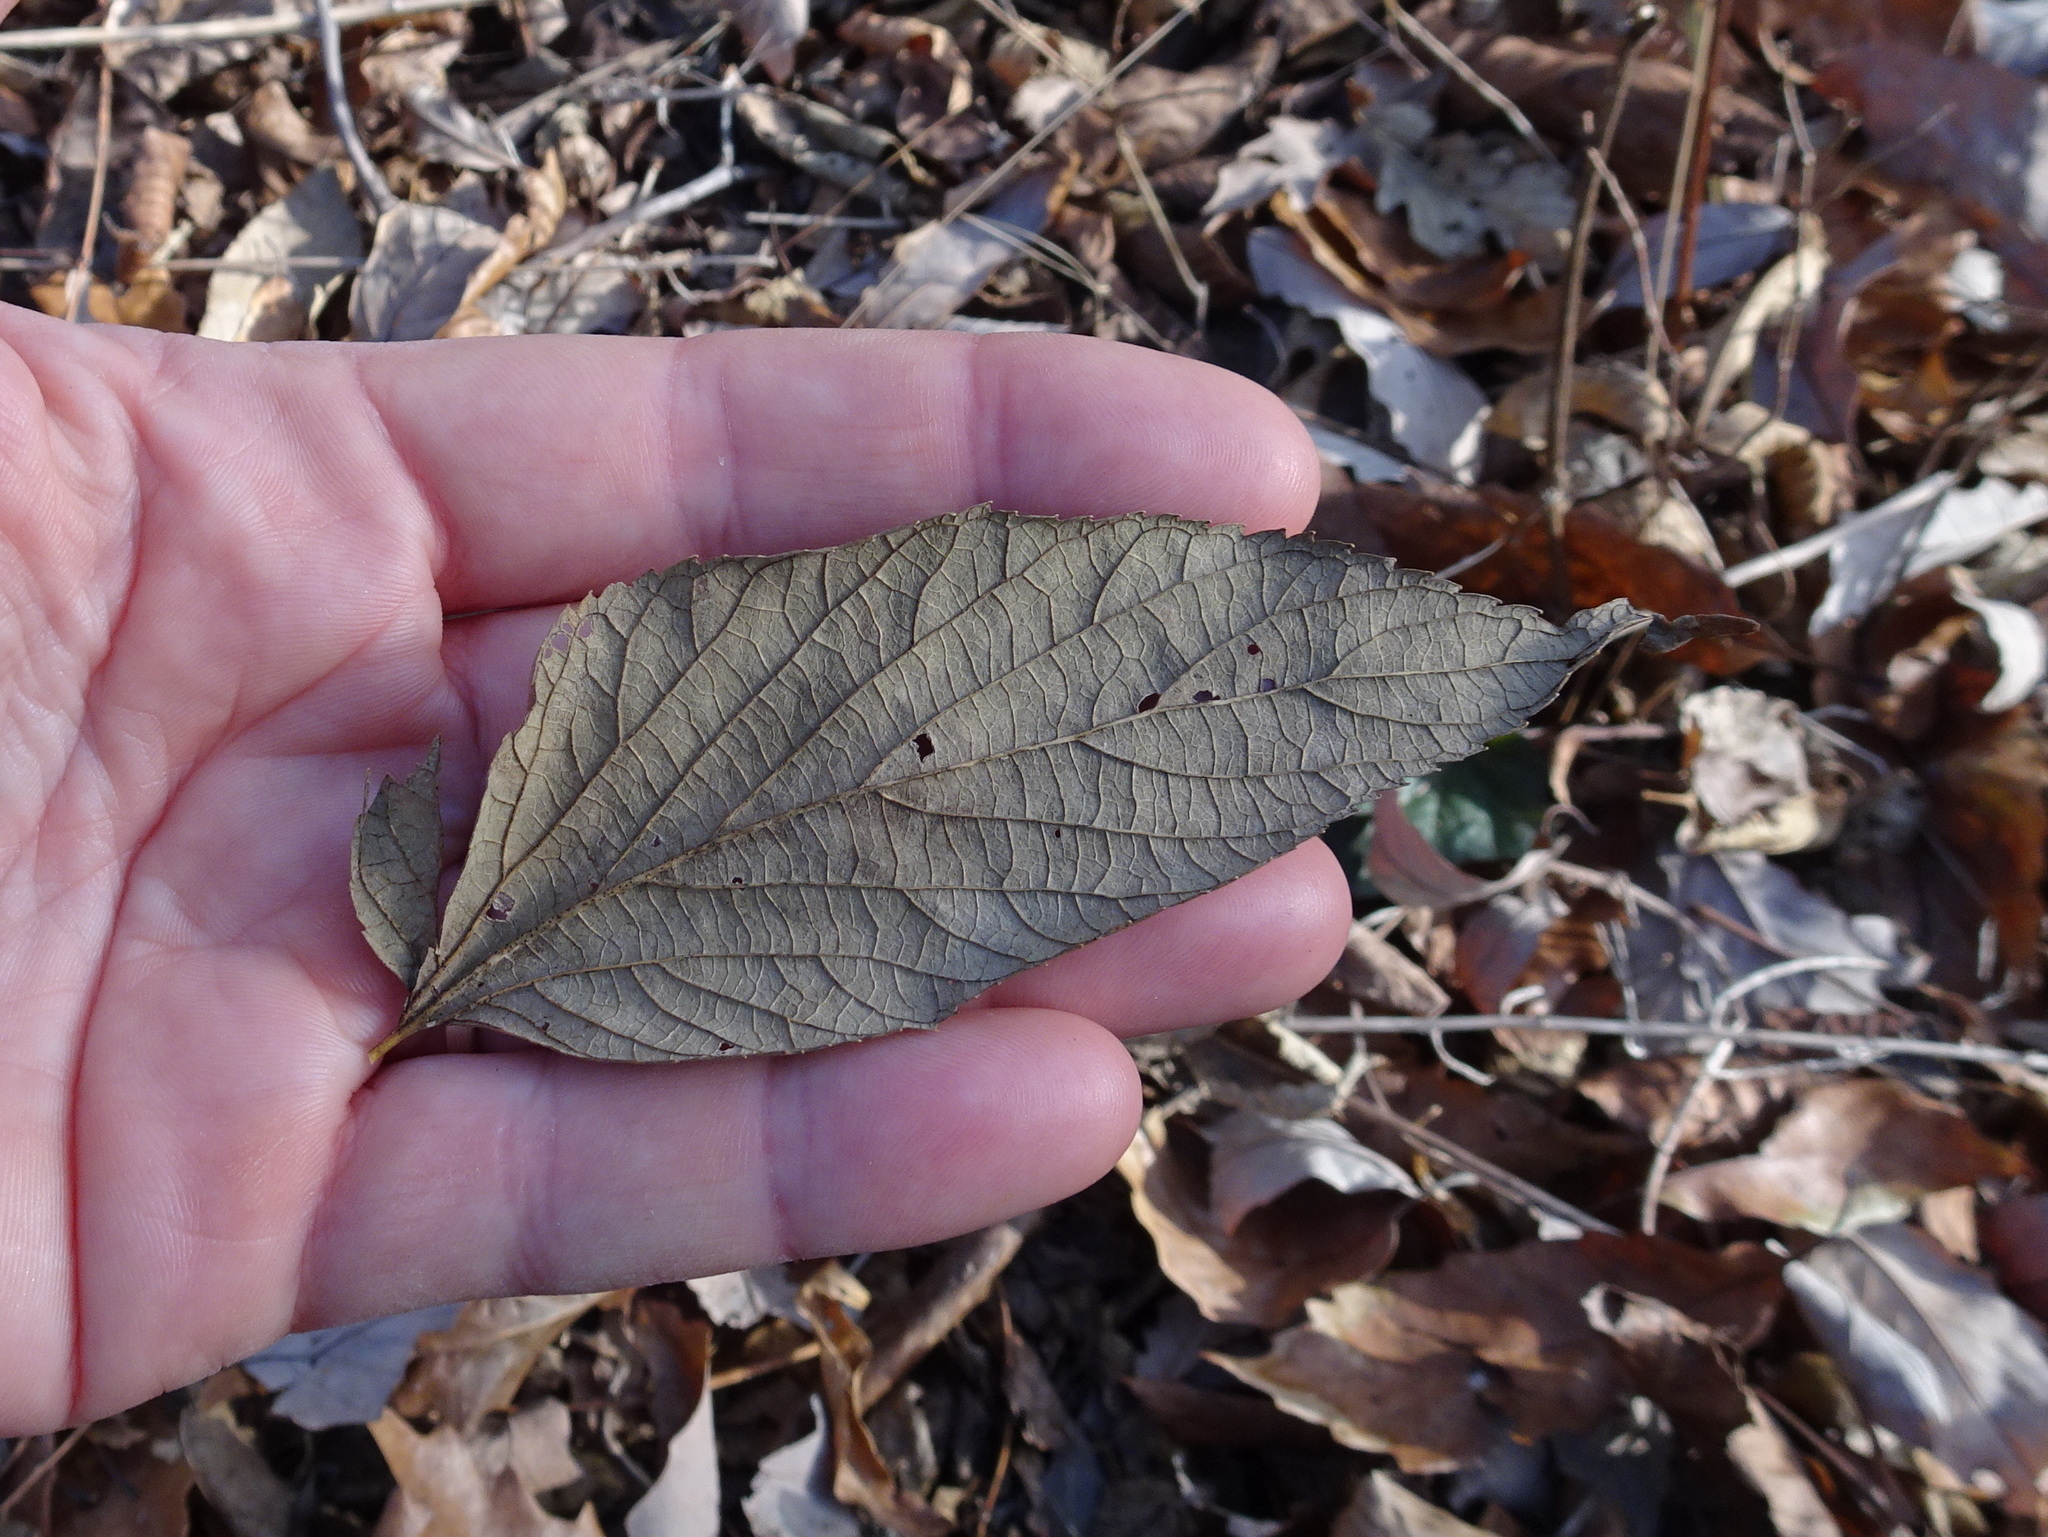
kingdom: Plantae
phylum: Tracheophyta
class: Magnoliopsida
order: Rosales
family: Cannabaceae
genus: Celtis
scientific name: Celtis occidentalis
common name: Common hackberry
